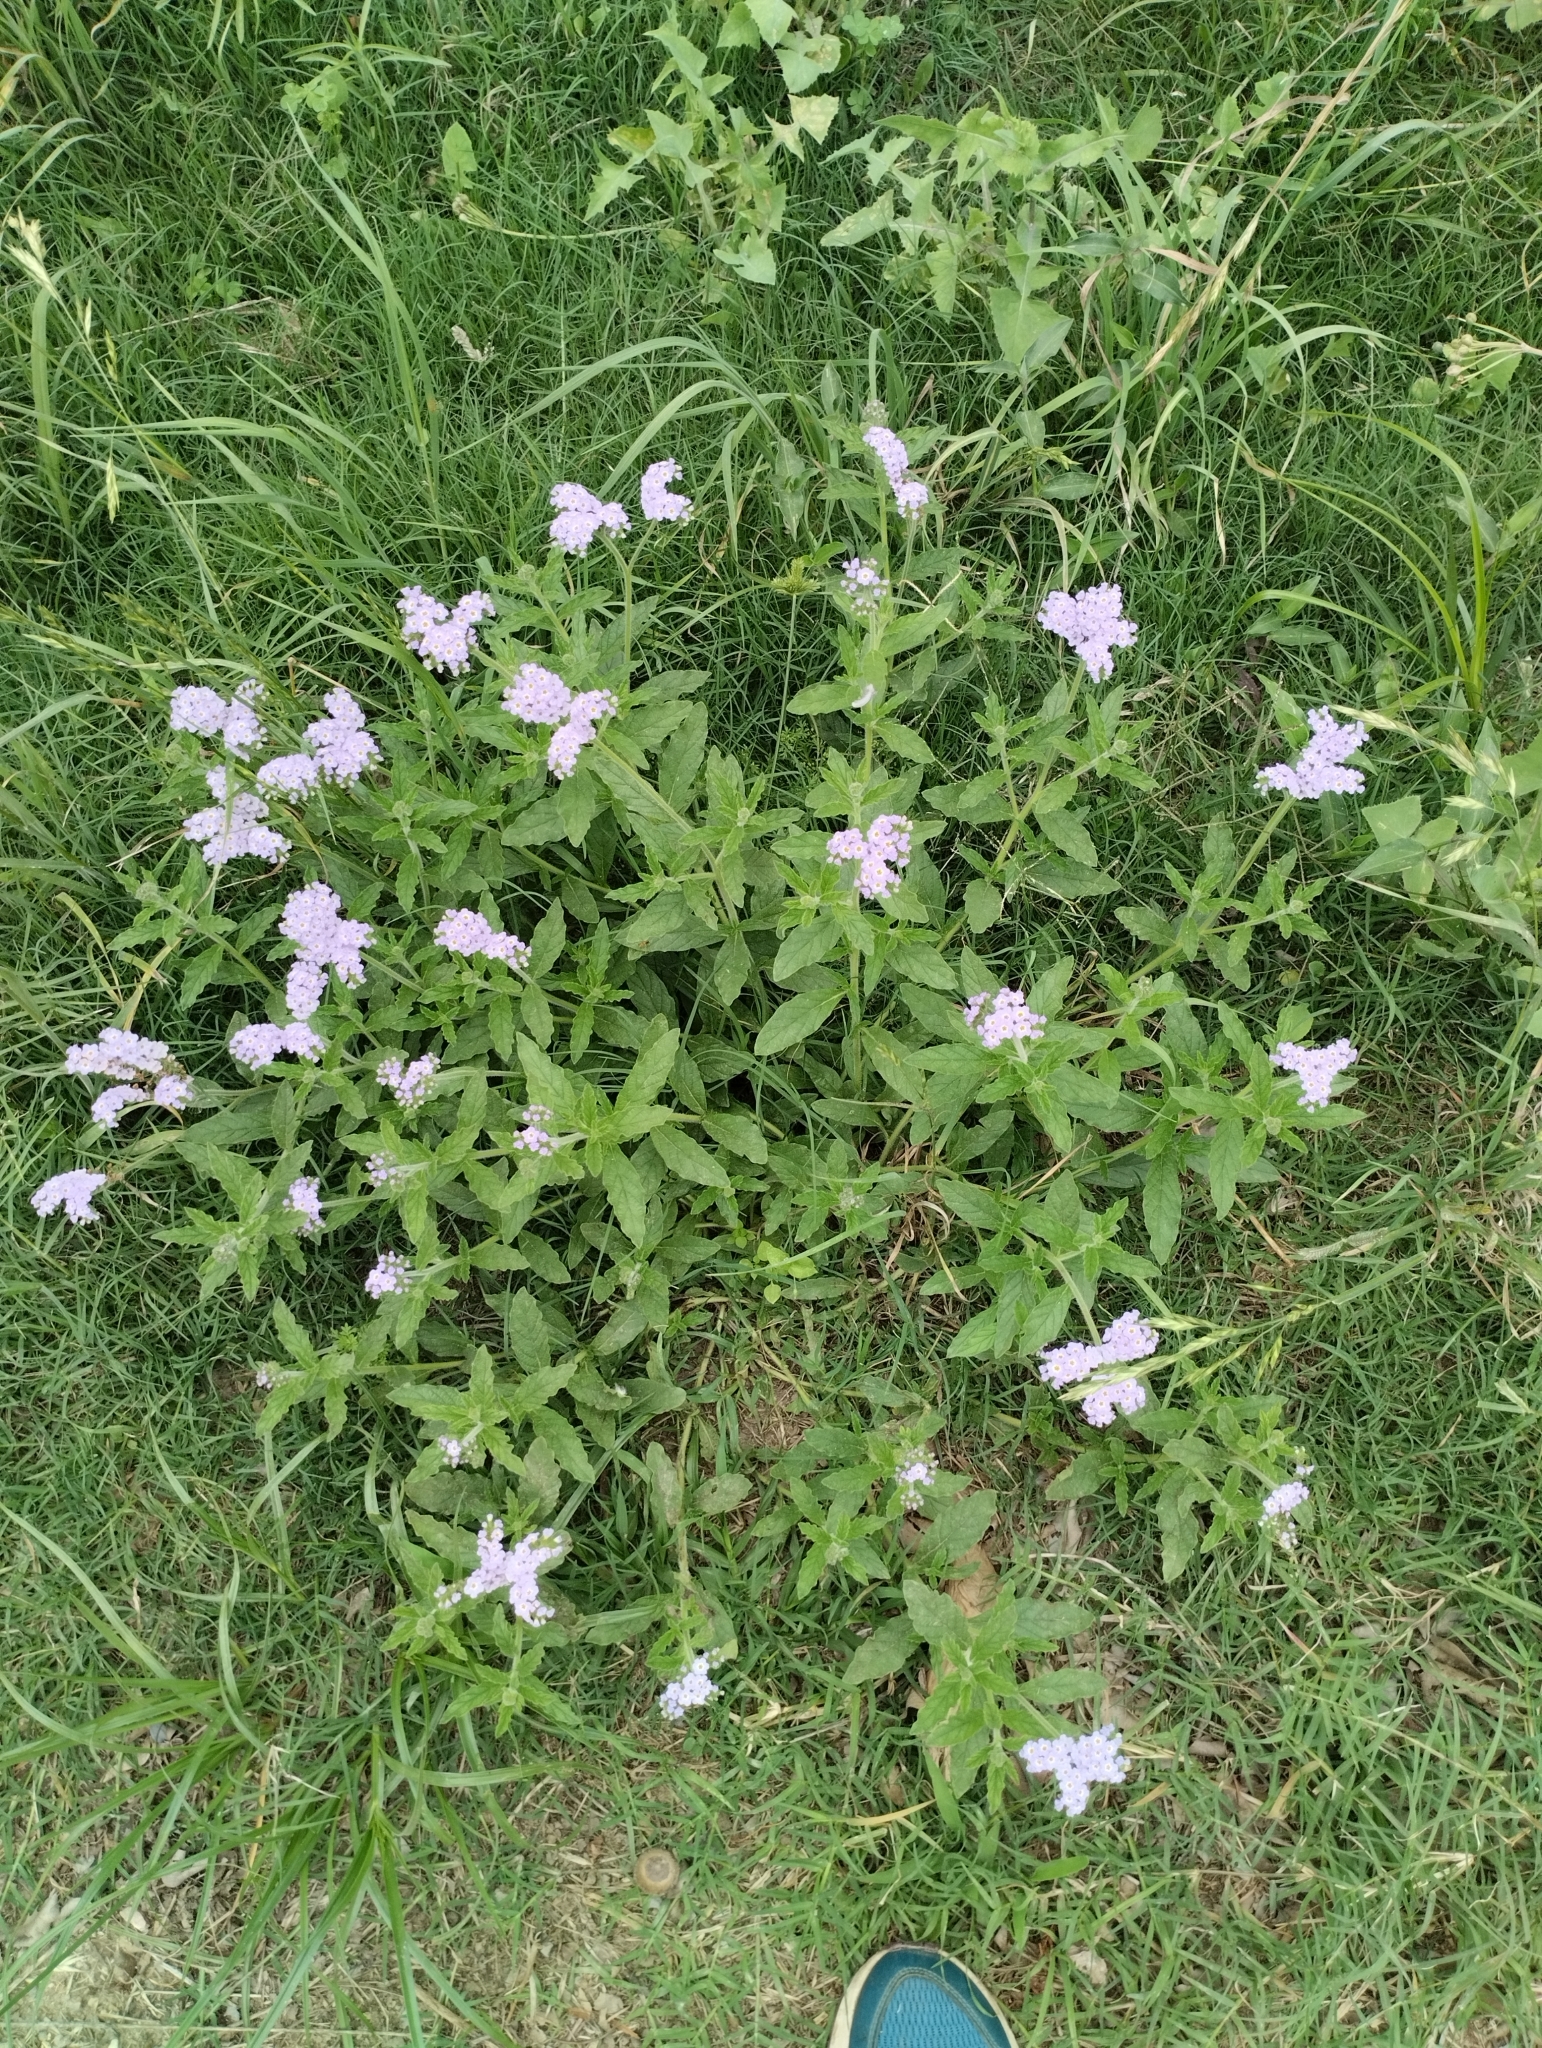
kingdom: Plantae
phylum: Tracheophyta
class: Magnoliopsida
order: Boraginales
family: Heliotropiaceae
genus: Heliotropium
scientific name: Heliotropium amplexicaule
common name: Clasping heliotrope
